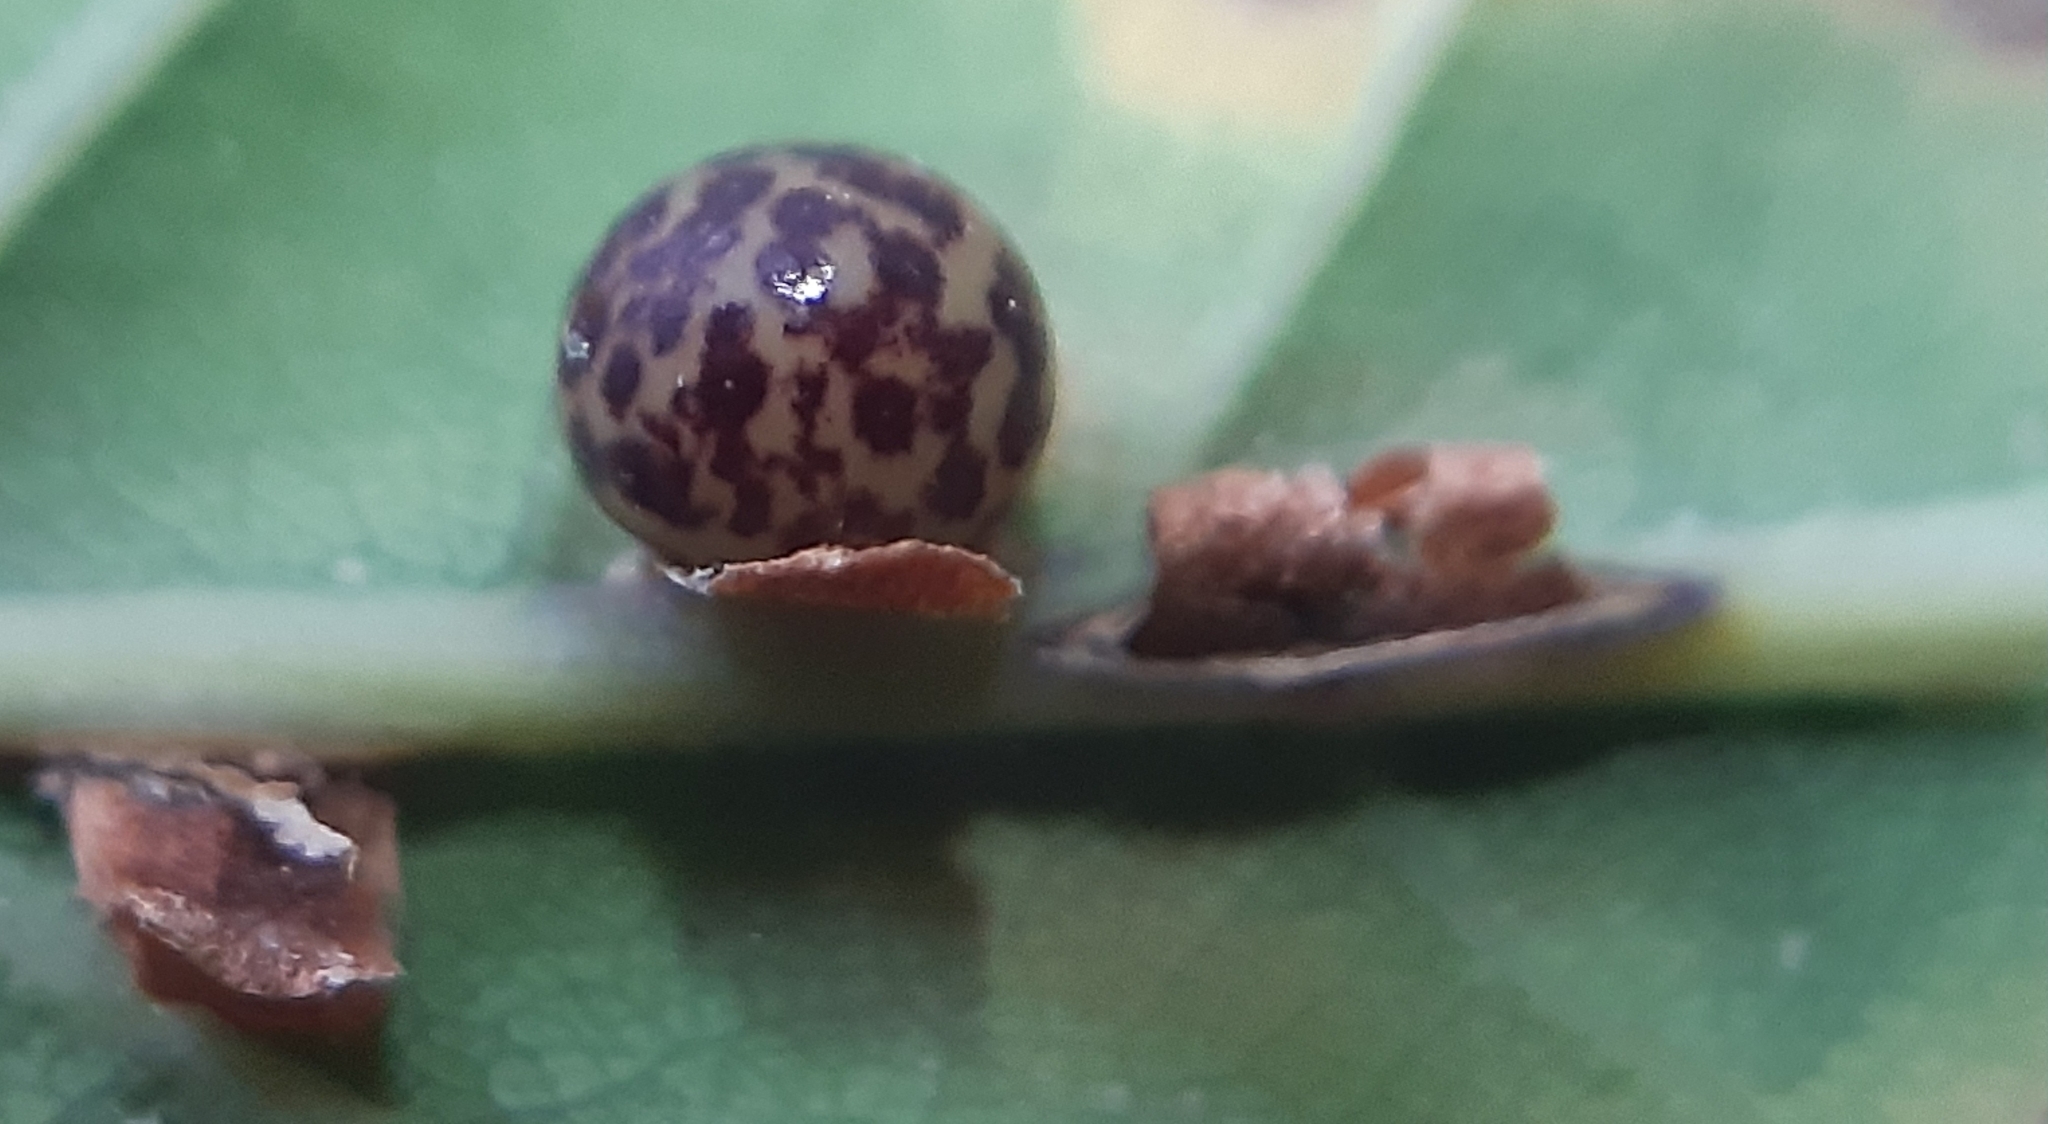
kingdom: Animalia
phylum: Arthropoda
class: Insecta
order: Hymenoptera
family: Cynipidae
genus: Neuroterus
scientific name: Neuroterus anthracinus
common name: Oyster gall
